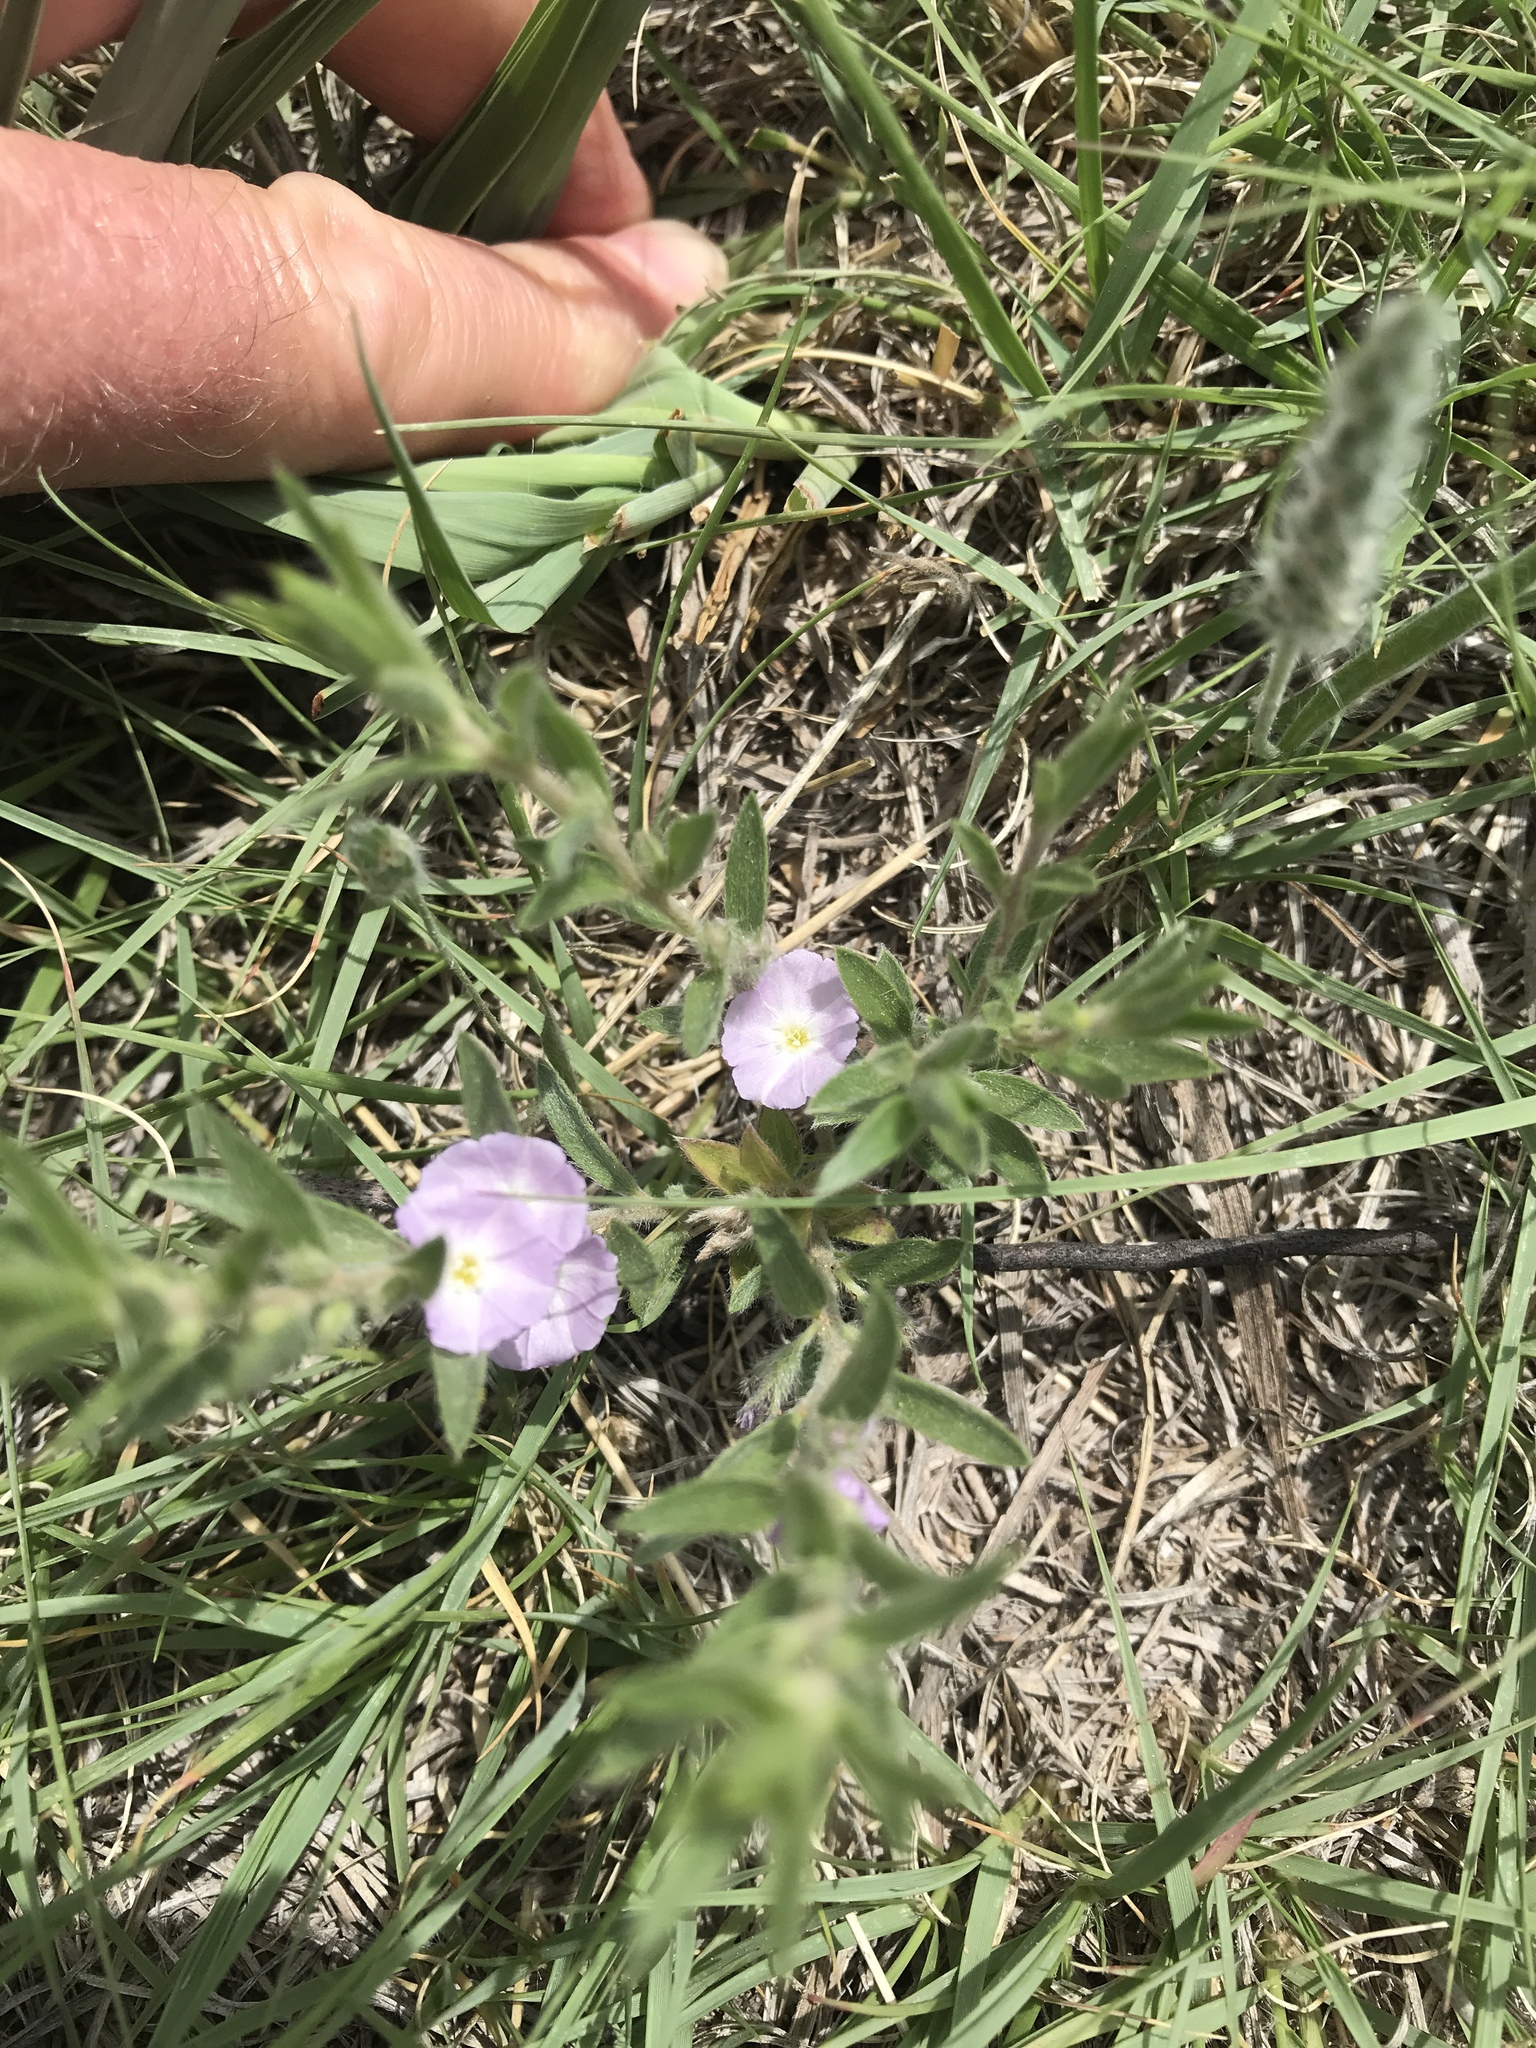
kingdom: Plantae
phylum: Tracheophyta
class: Magnoliopsida
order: Solanales
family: Convolvulaceae
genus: Evolvulus
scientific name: Evolvulus nuttallianus
